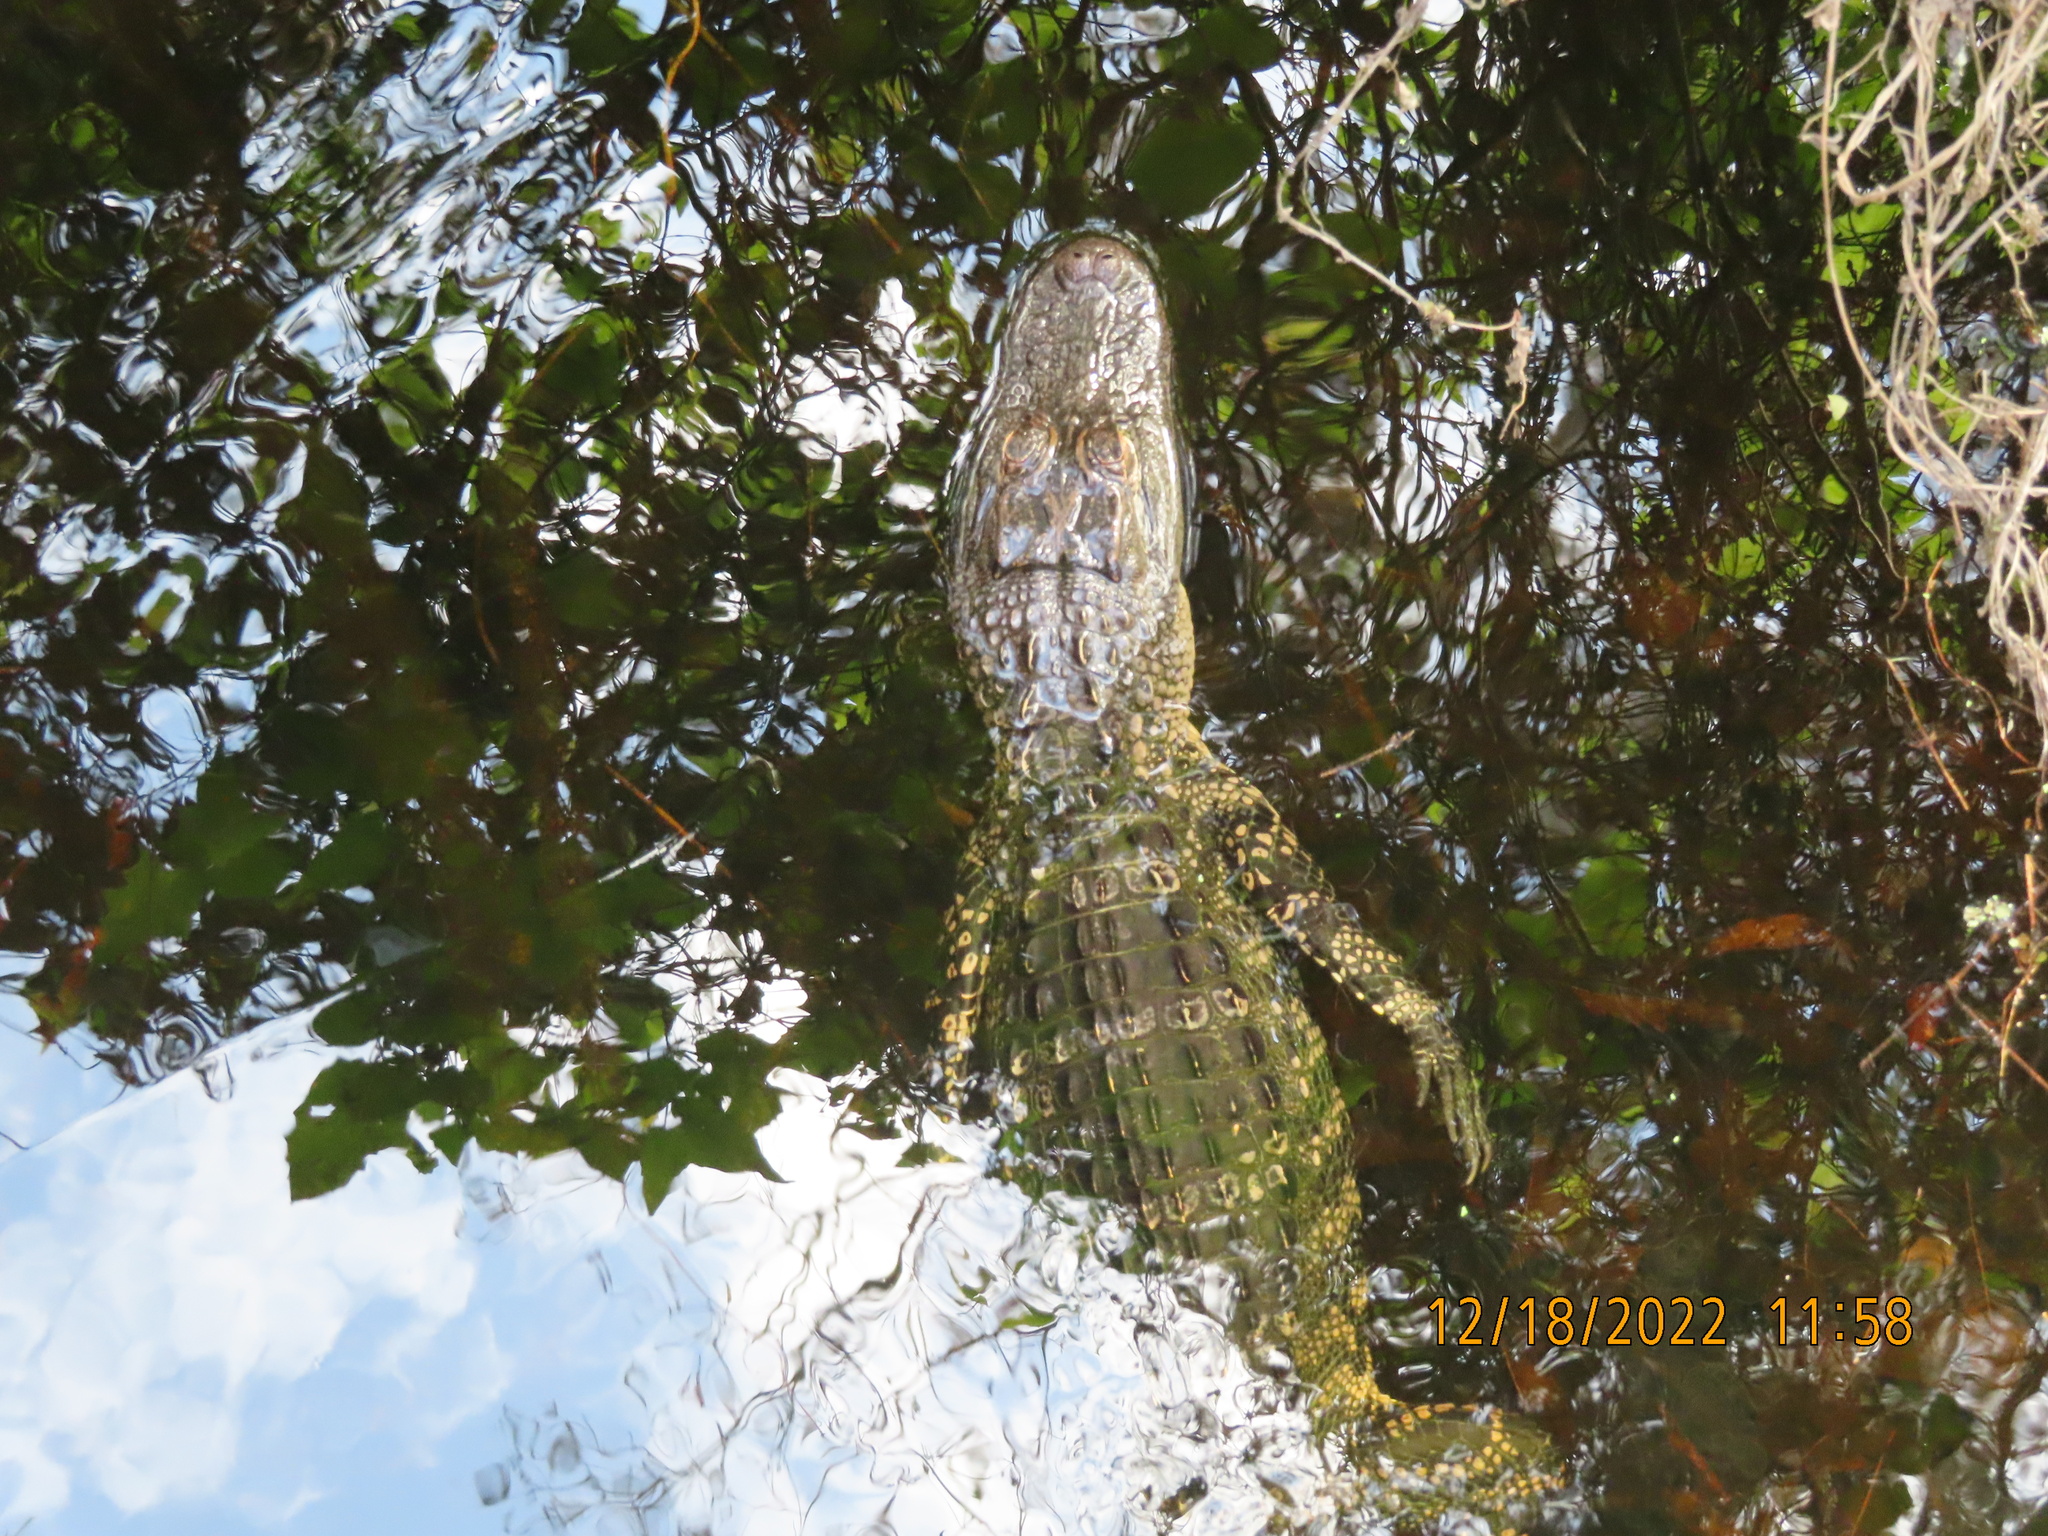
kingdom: Animalia
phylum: Chordata
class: Crocodylia
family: Alligatoridae
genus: Alligator
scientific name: Alligator mississippiensis
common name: American alligator
